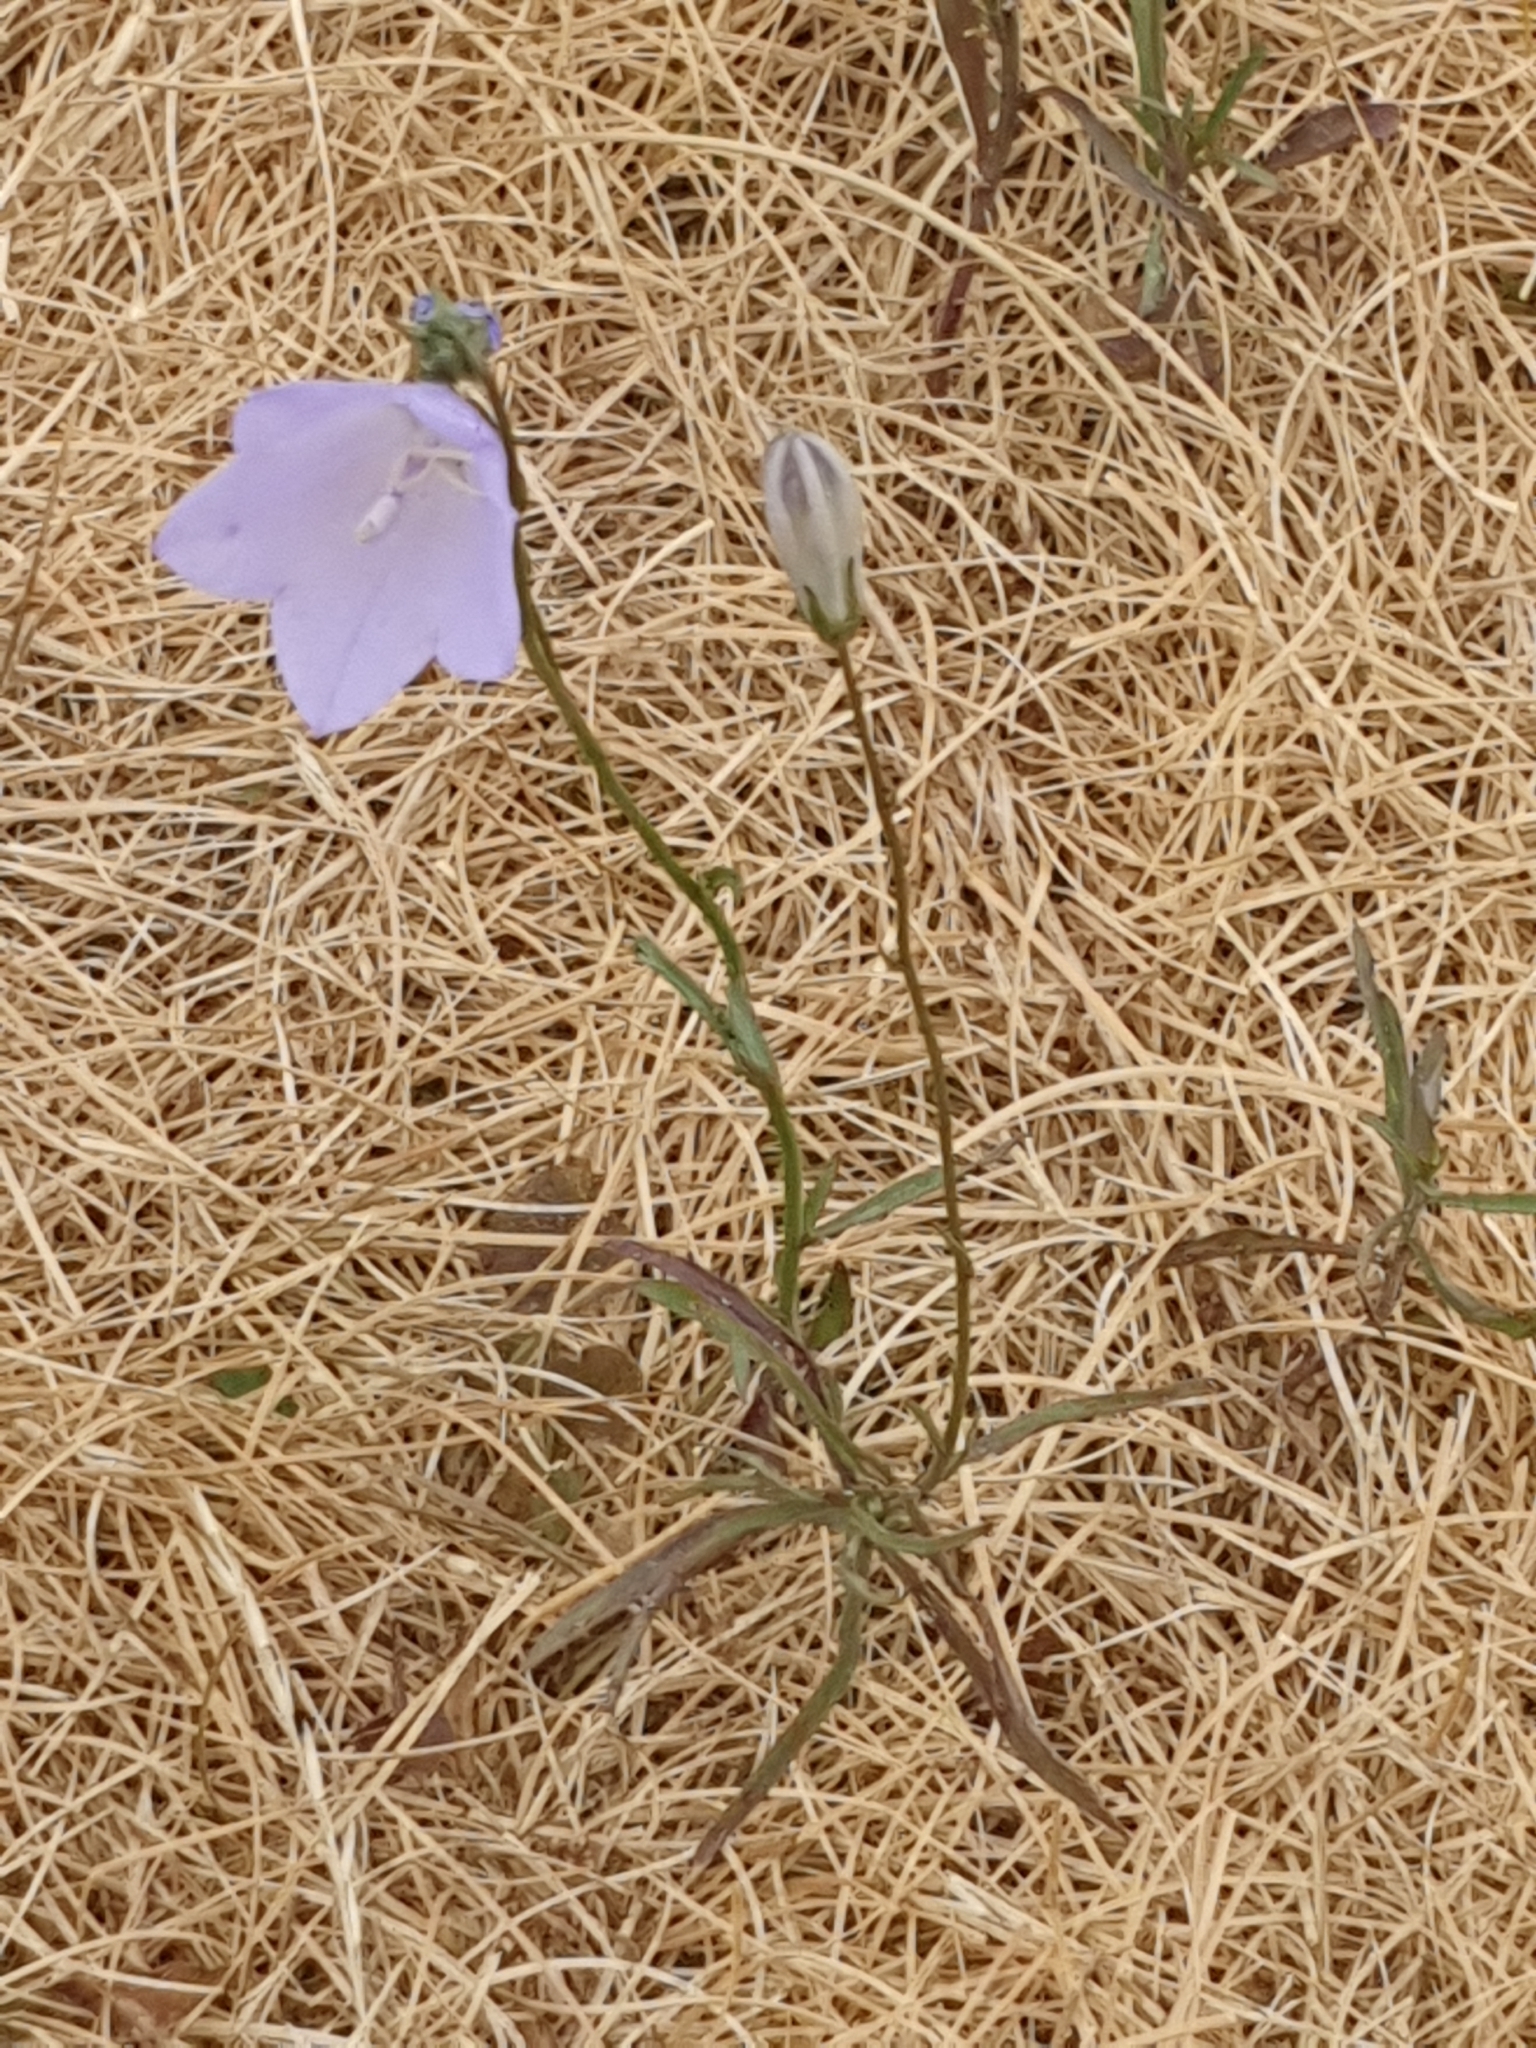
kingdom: Plantae
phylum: Tracheophyta
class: Magnoliopsida
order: Asterales
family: Campanulaceae
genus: Campanula
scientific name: Campanula rotundifolia
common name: Harebell
